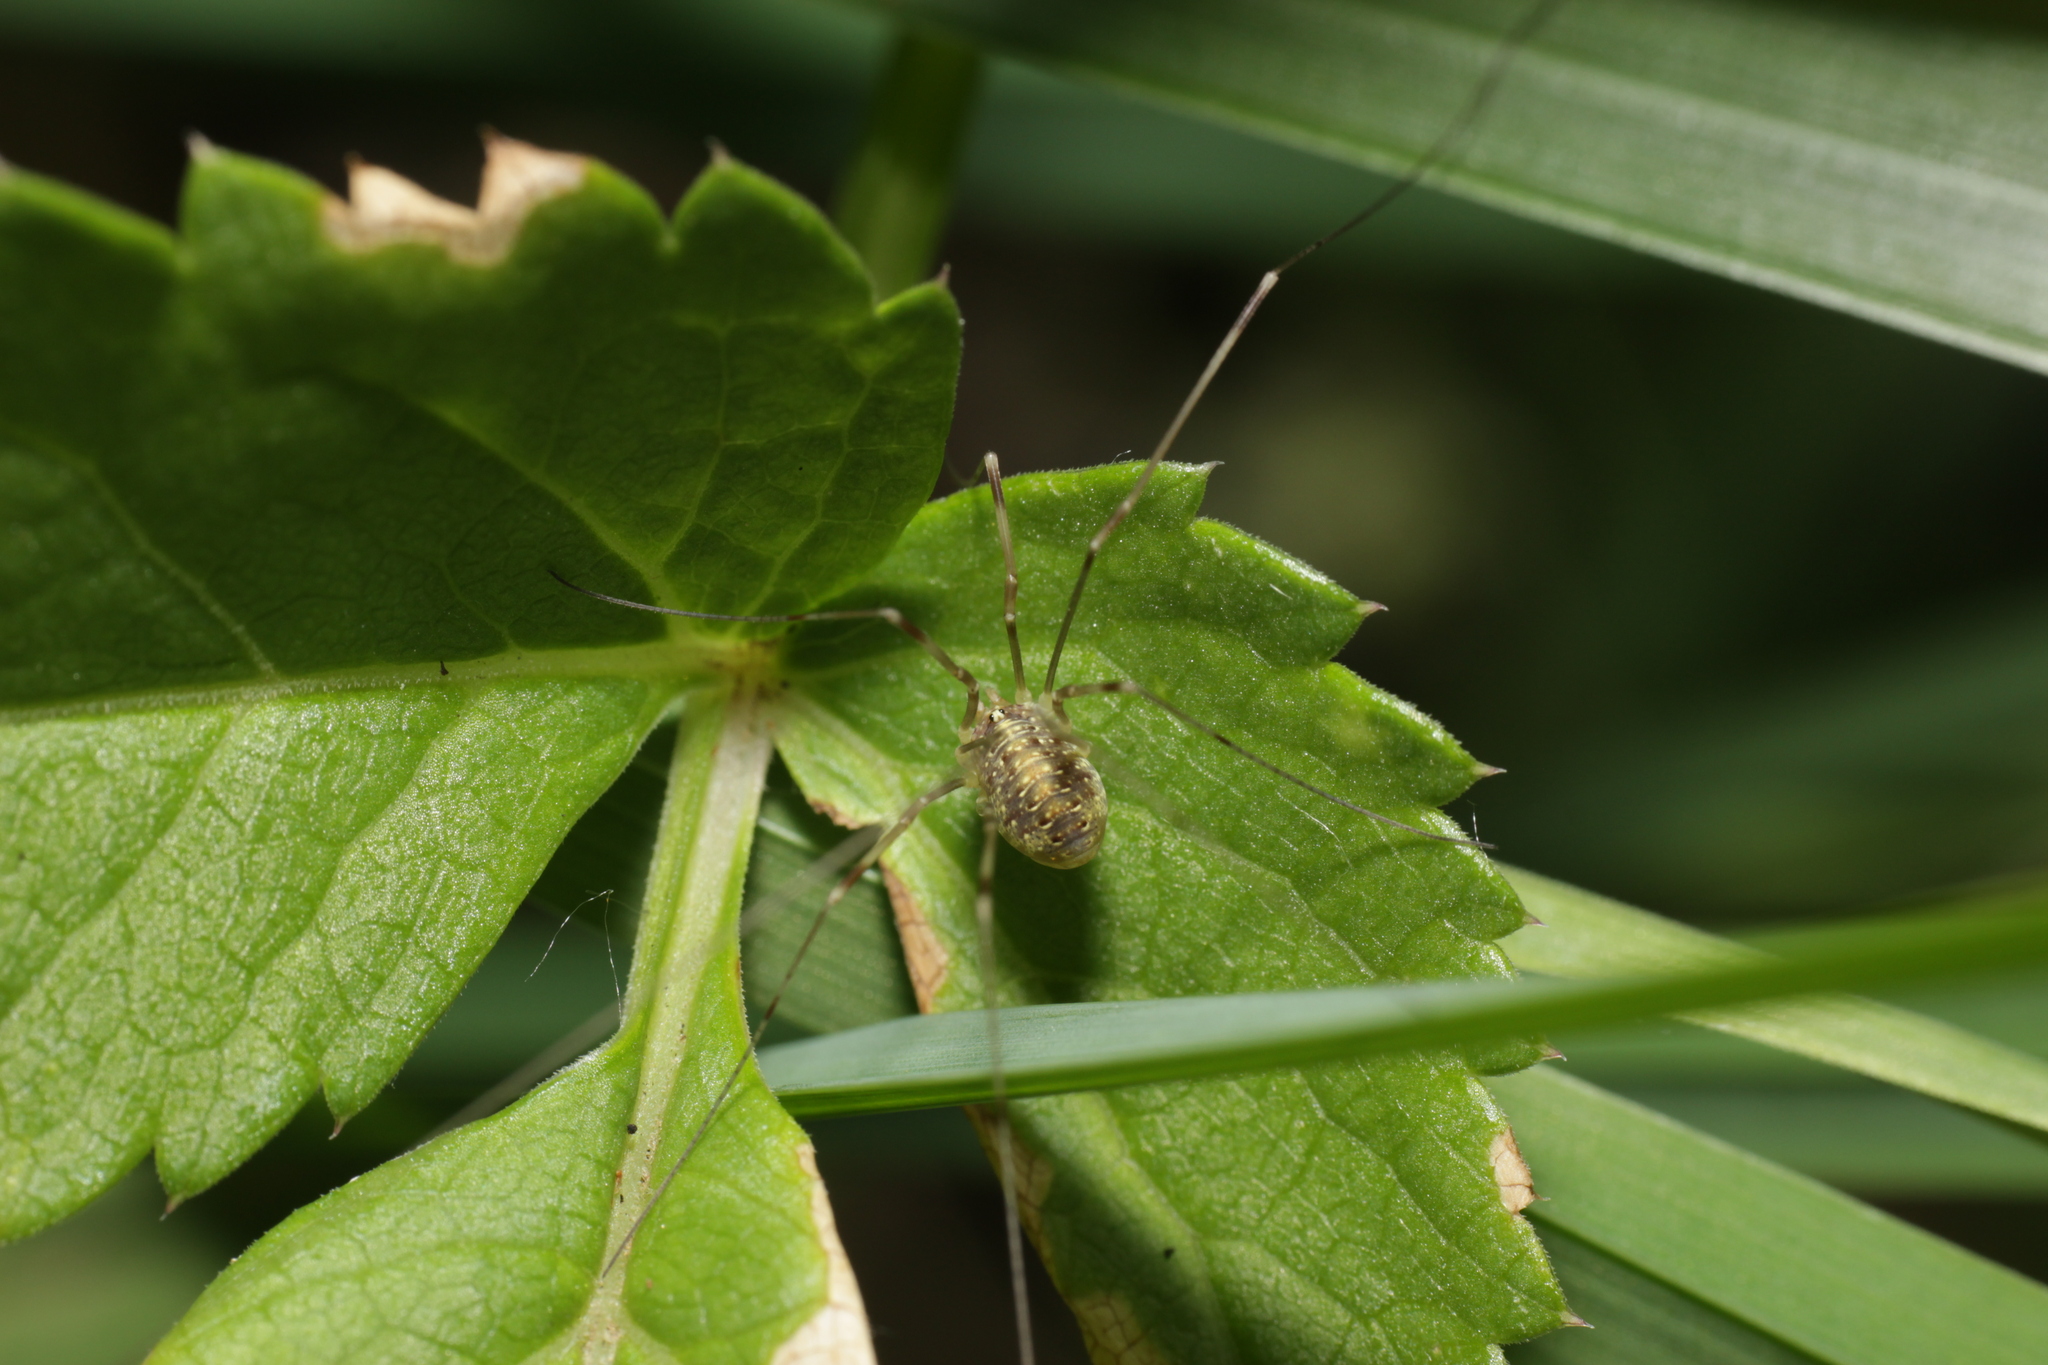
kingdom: Animalia
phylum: Arthropoda
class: Arachnida
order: Opiliones
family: Phalangiidae
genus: Opilio
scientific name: Opilio canestrinii
